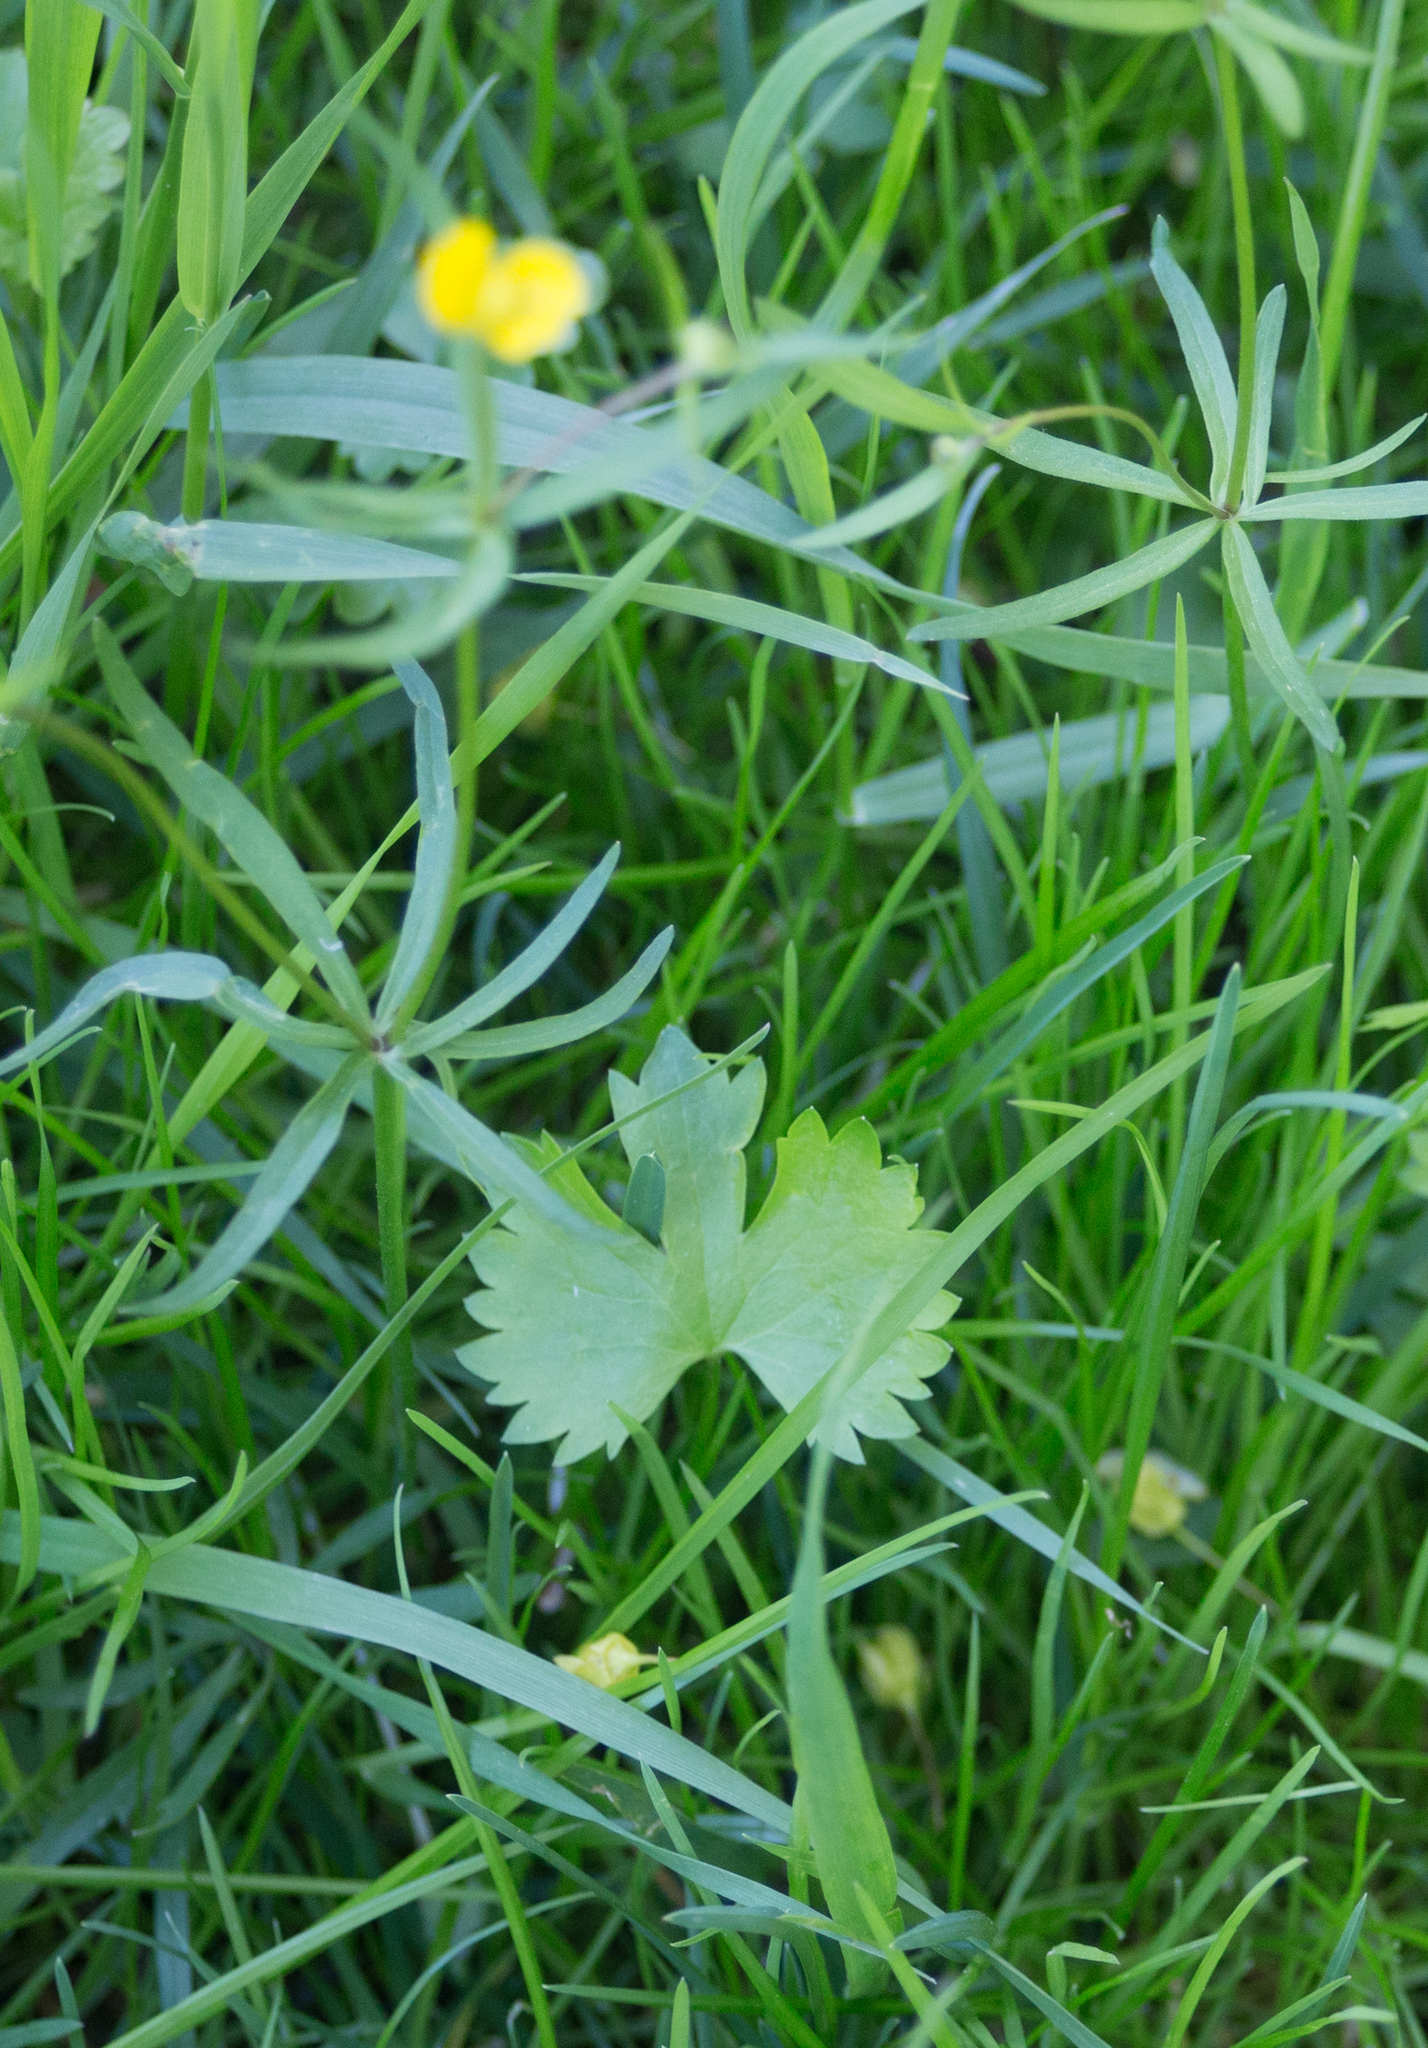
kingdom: Plantae
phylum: Tracheophyta
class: Magnoliopsida
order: Ranunculales
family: Ranunculaceae
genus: Ranunculus
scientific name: Ranunculus auricomus
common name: Goldilocks buttercup
